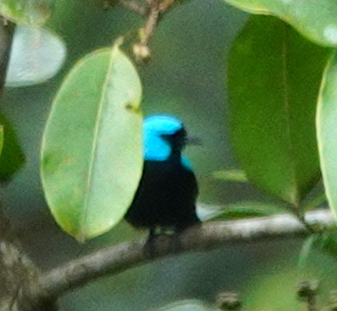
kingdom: Animalia
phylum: Chordata
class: Aves
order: Passeriformes
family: Thraupidae
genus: Dacnis
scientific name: Dacnis venusta
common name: Scarlet-thighed dacnis
